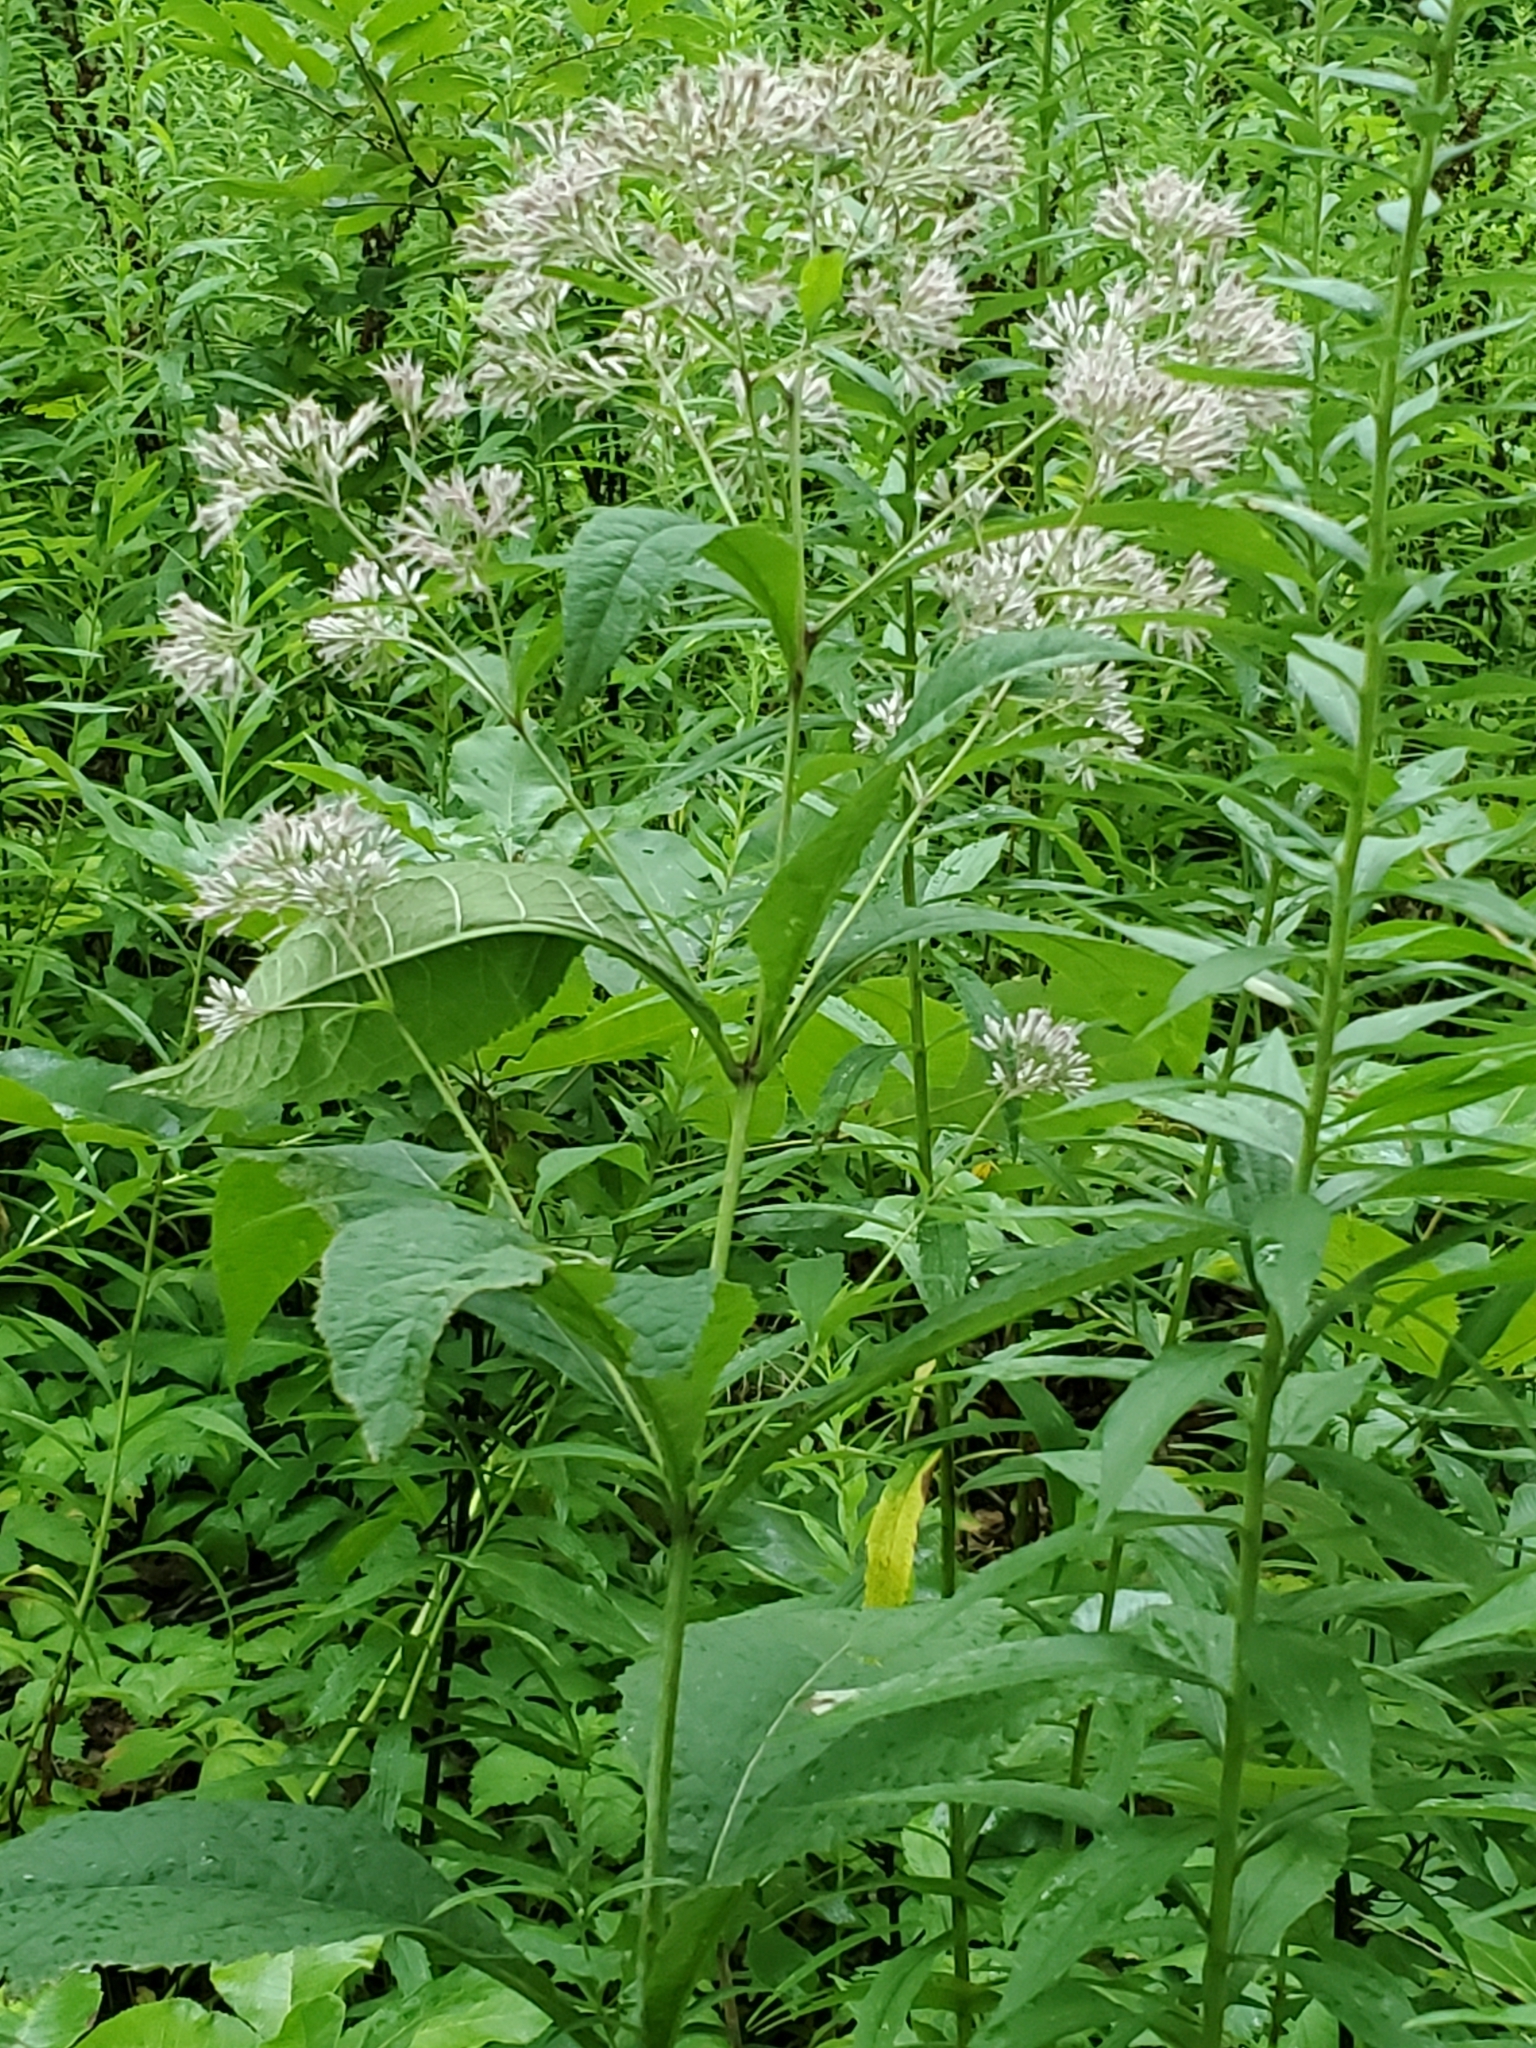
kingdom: Plantae
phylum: Tracheophyta
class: Magnoliopsida
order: Asterales
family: Asteraceae
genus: Eutrochium
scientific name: Eutrochium purpureum
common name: Gravelroot
